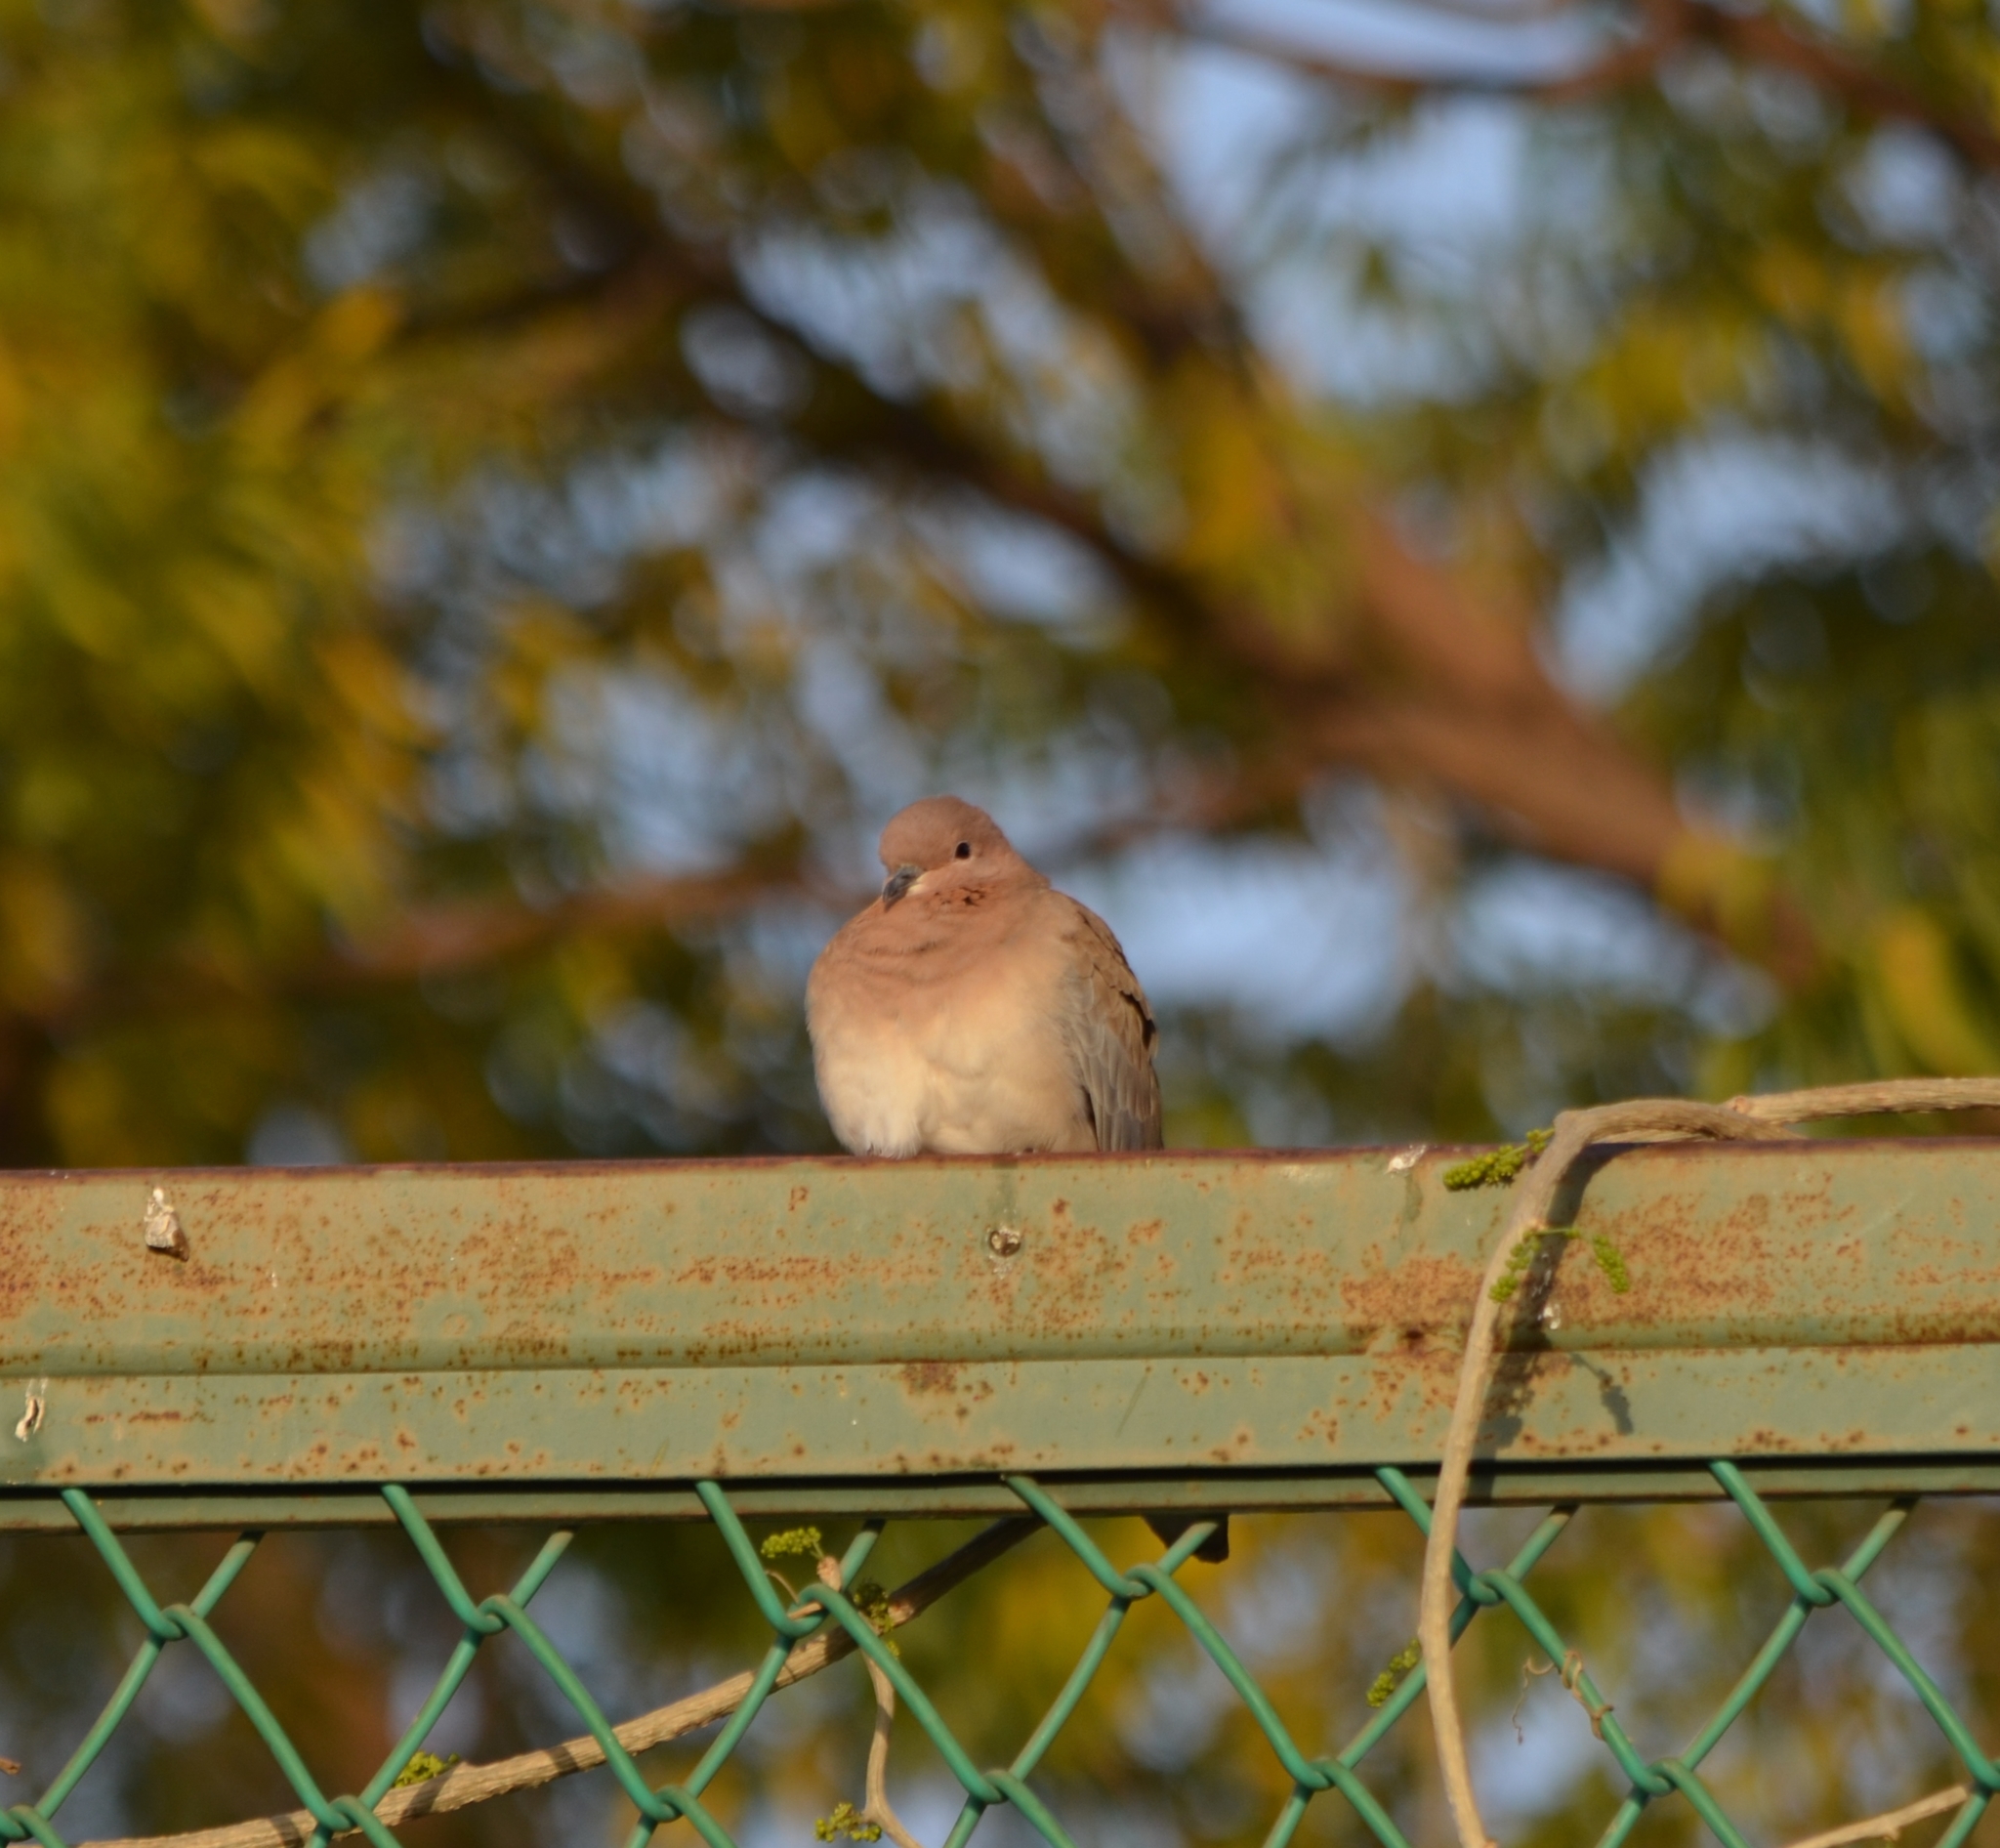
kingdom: Animalia
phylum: Chordata
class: Aves
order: Columbiformes
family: Columbidae
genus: Spilopelia
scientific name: Spilopelia senegalensis
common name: Laughing dove
